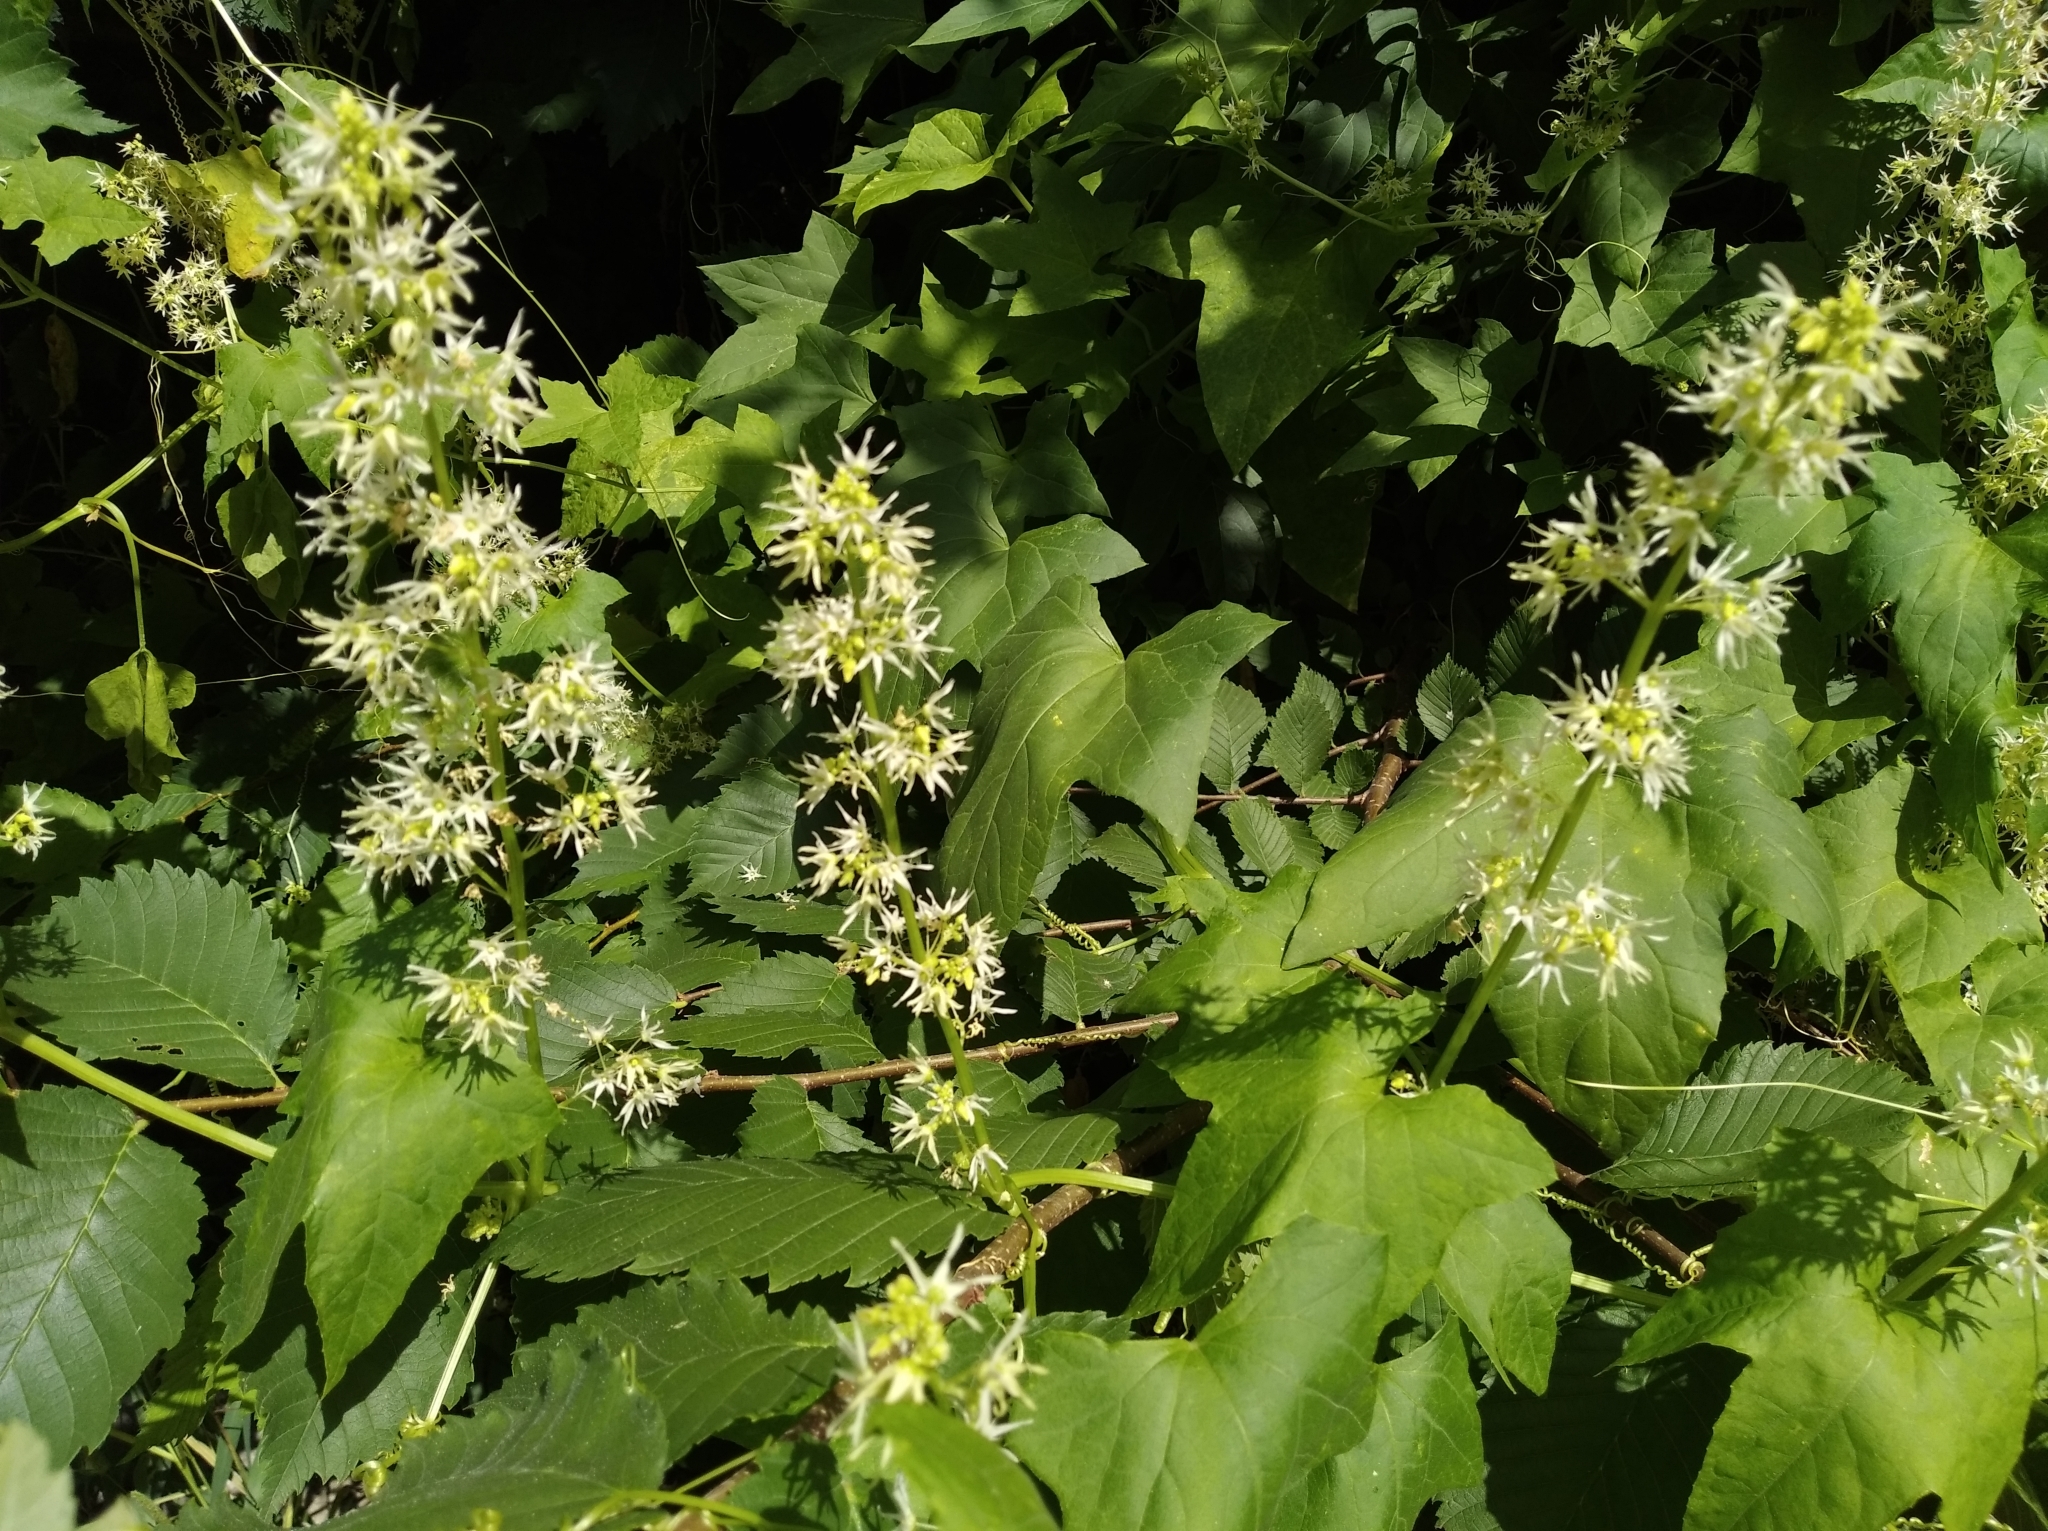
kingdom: Plantae
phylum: Tracheophyta
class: Magnoliopsida
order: Cucurbitales
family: Cucurbitaceae
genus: Echinocystis
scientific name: Echinocystis lobata
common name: Wild cucumber
